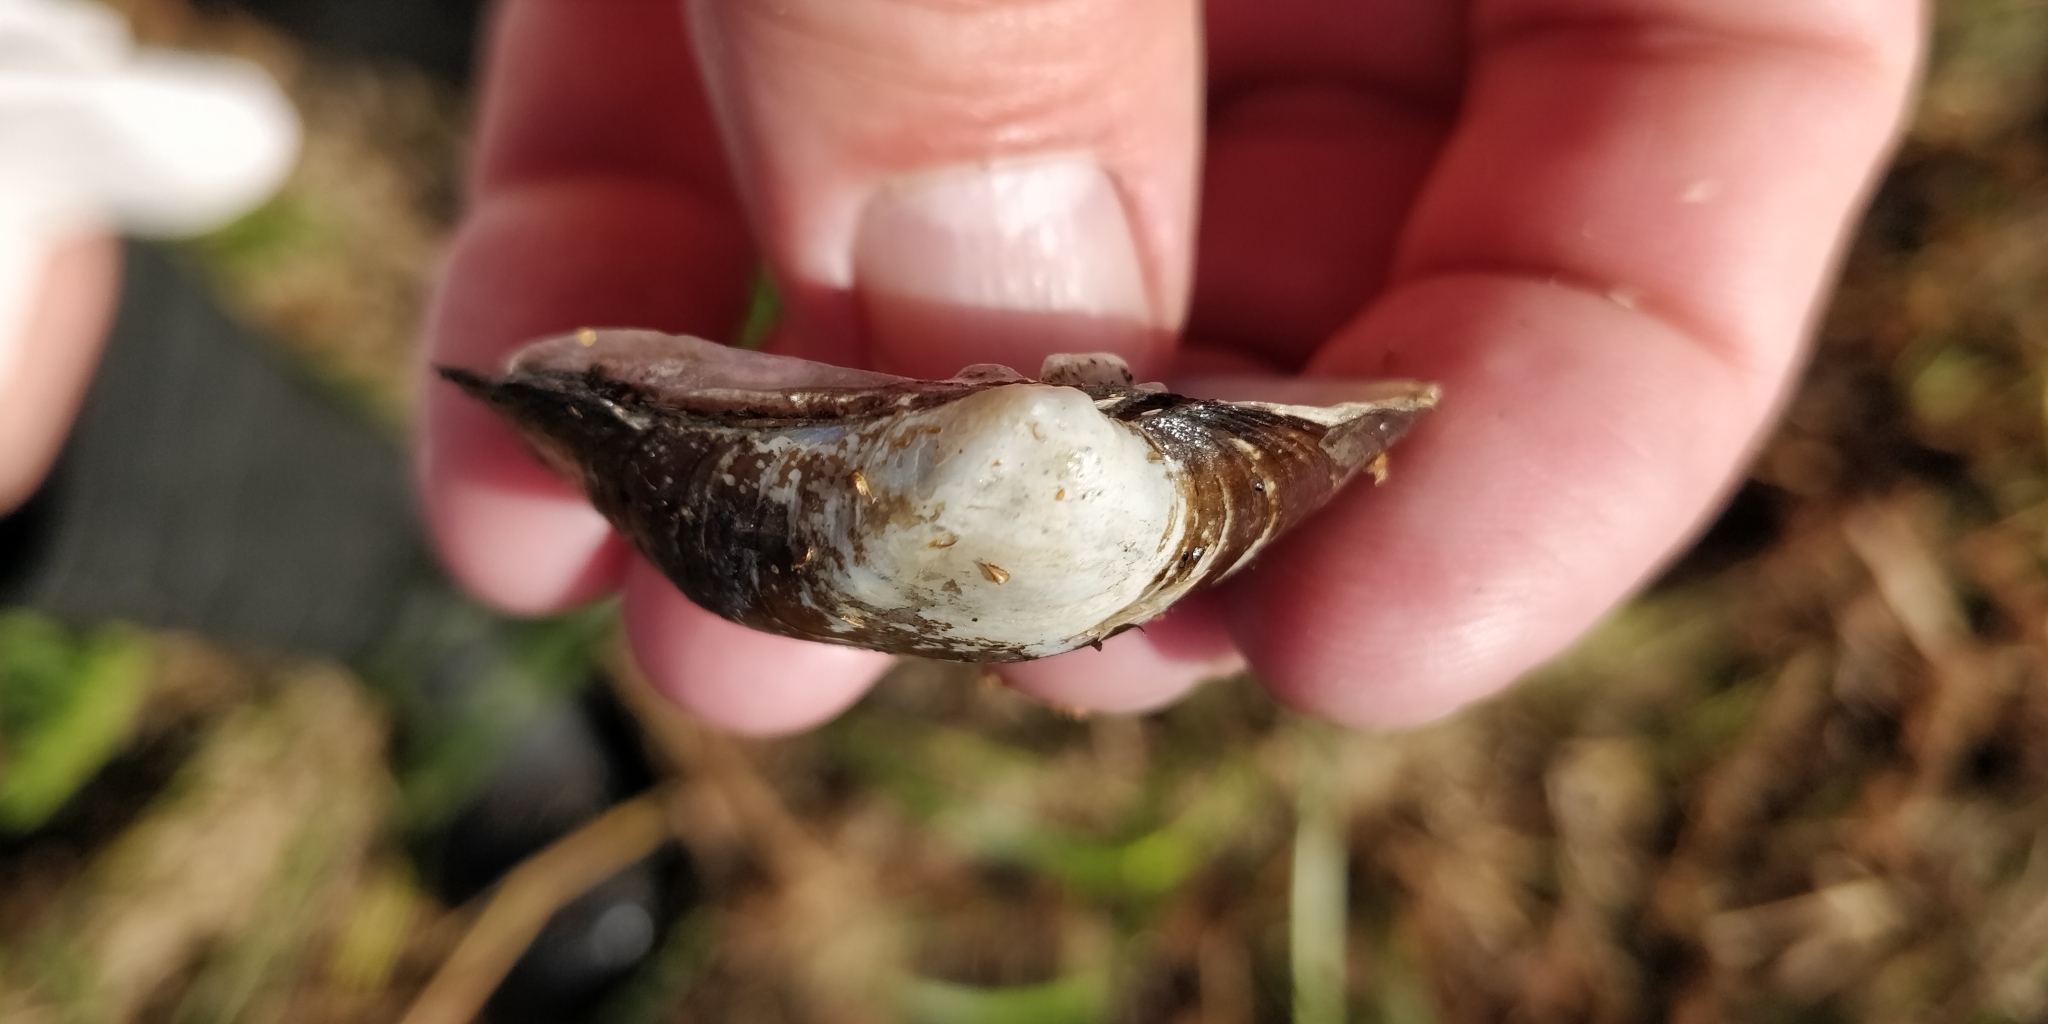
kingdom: Animalia
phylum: Mollusca
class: Bivalvia
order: Unionida
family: Unionidae
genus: Cyclonaias
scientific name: Cyclonaias pustulosa
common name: Pimpleback
